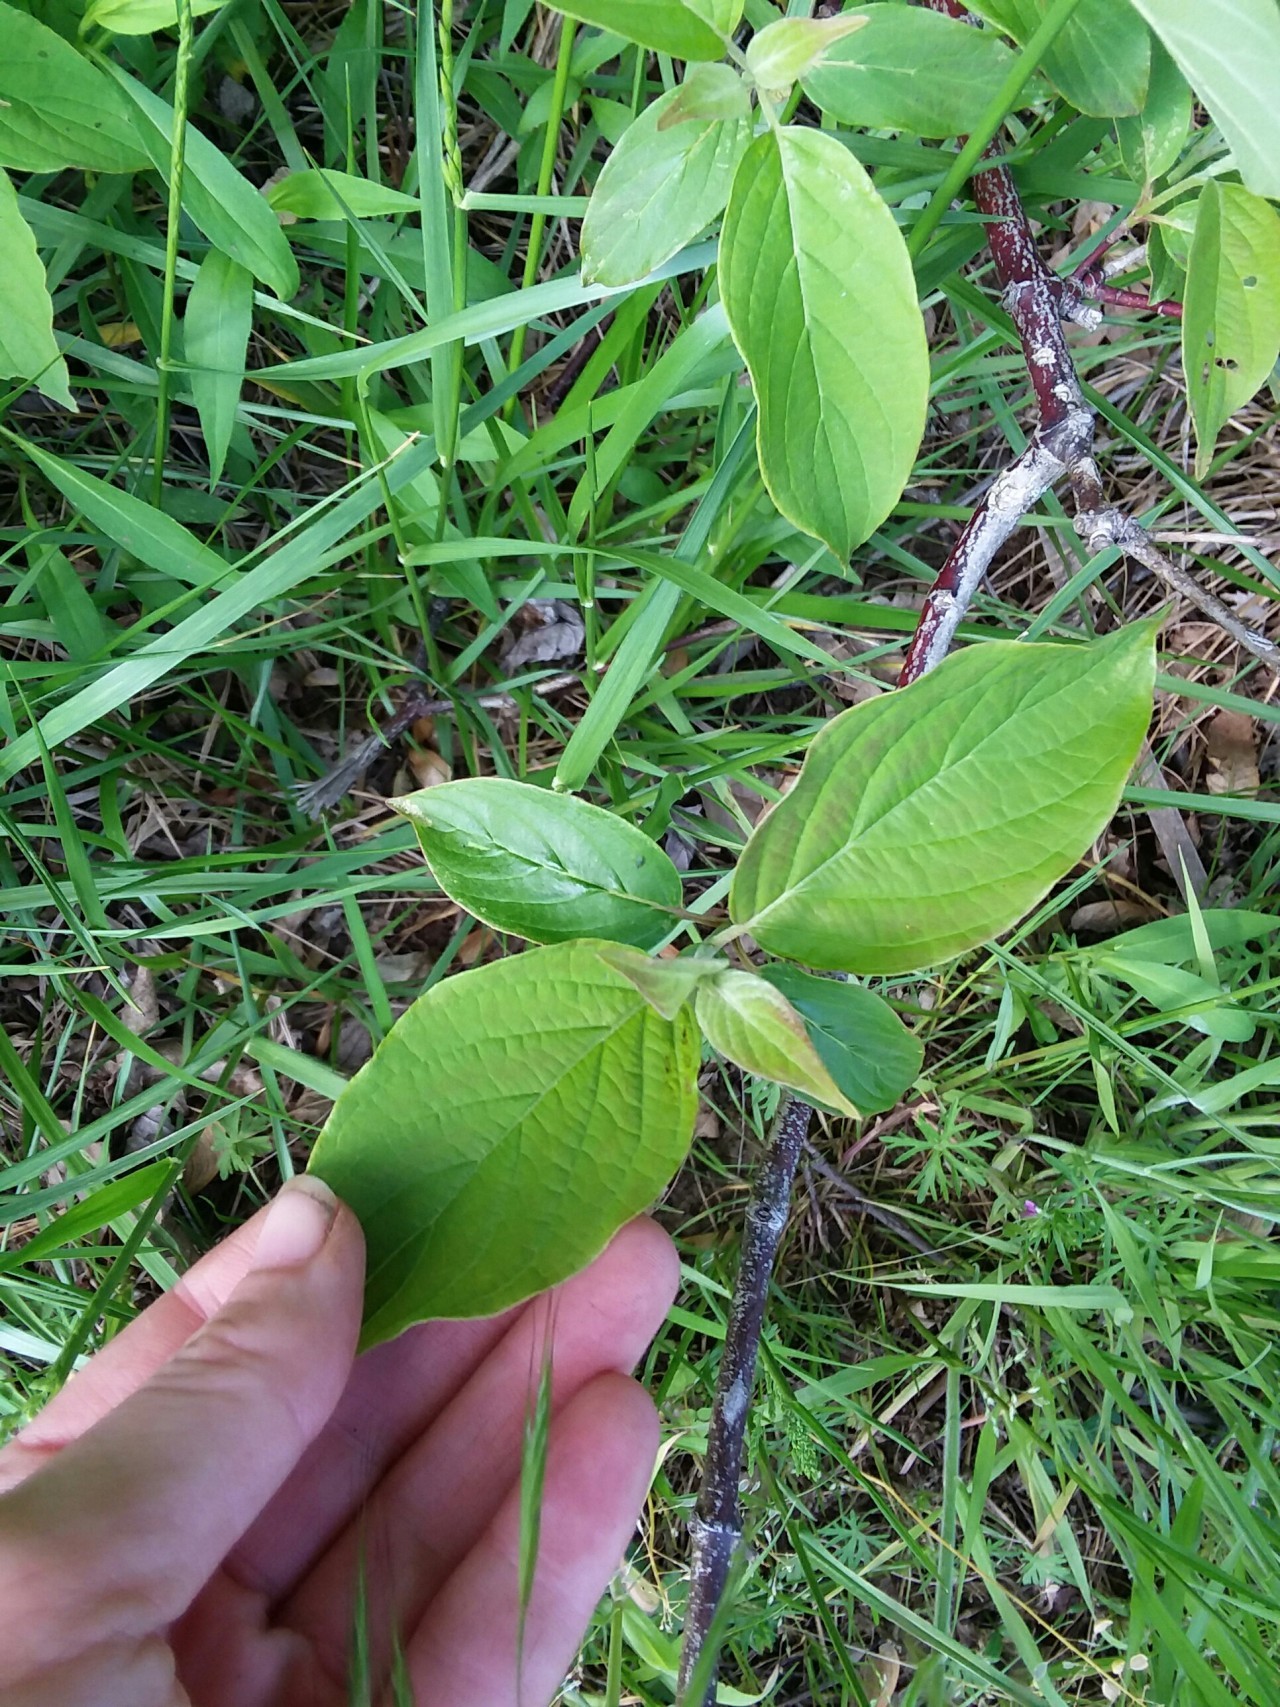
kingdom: Plantae
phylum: Tracheophyta
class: Magnoliopsida
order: Cornales
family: Cornaceae
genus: Cornus
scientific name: Cornus florida
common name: Flowering dogwood
